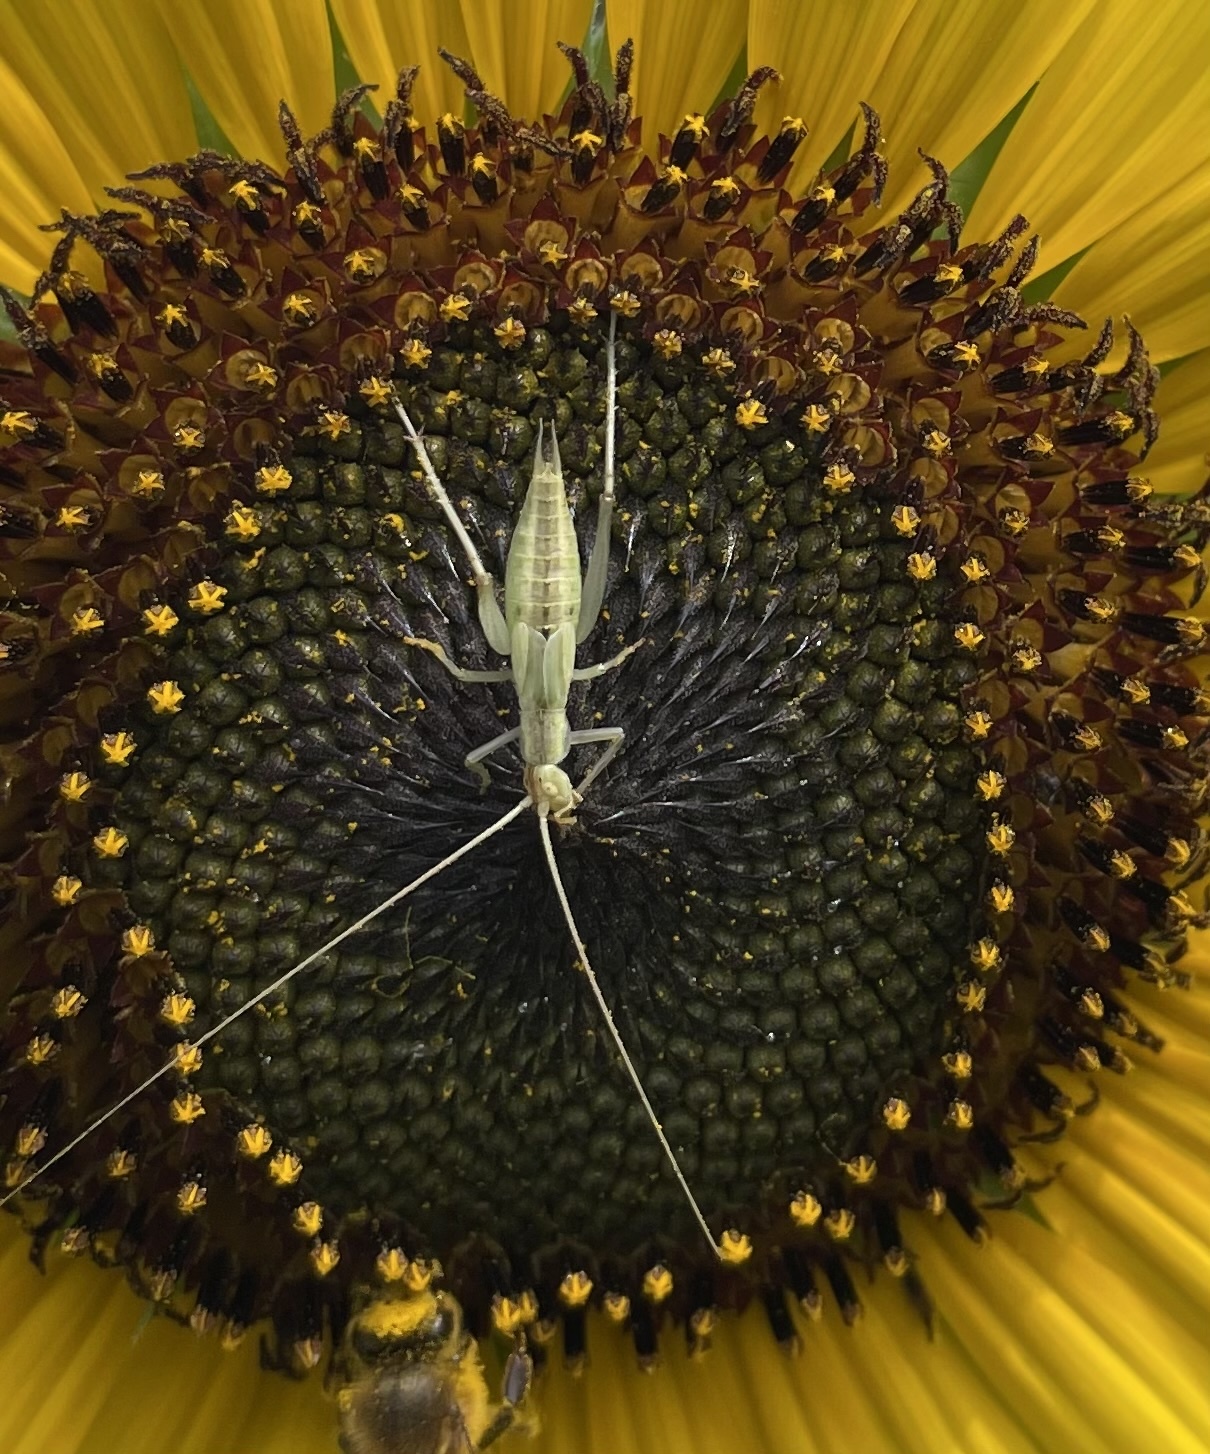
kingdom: Animalia
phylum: Arthropoda
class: Insecta
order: Orthoptera
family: Gryllidae
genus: Oecanthus
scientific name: Oecanthus pellucens
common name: Tree-cricket
